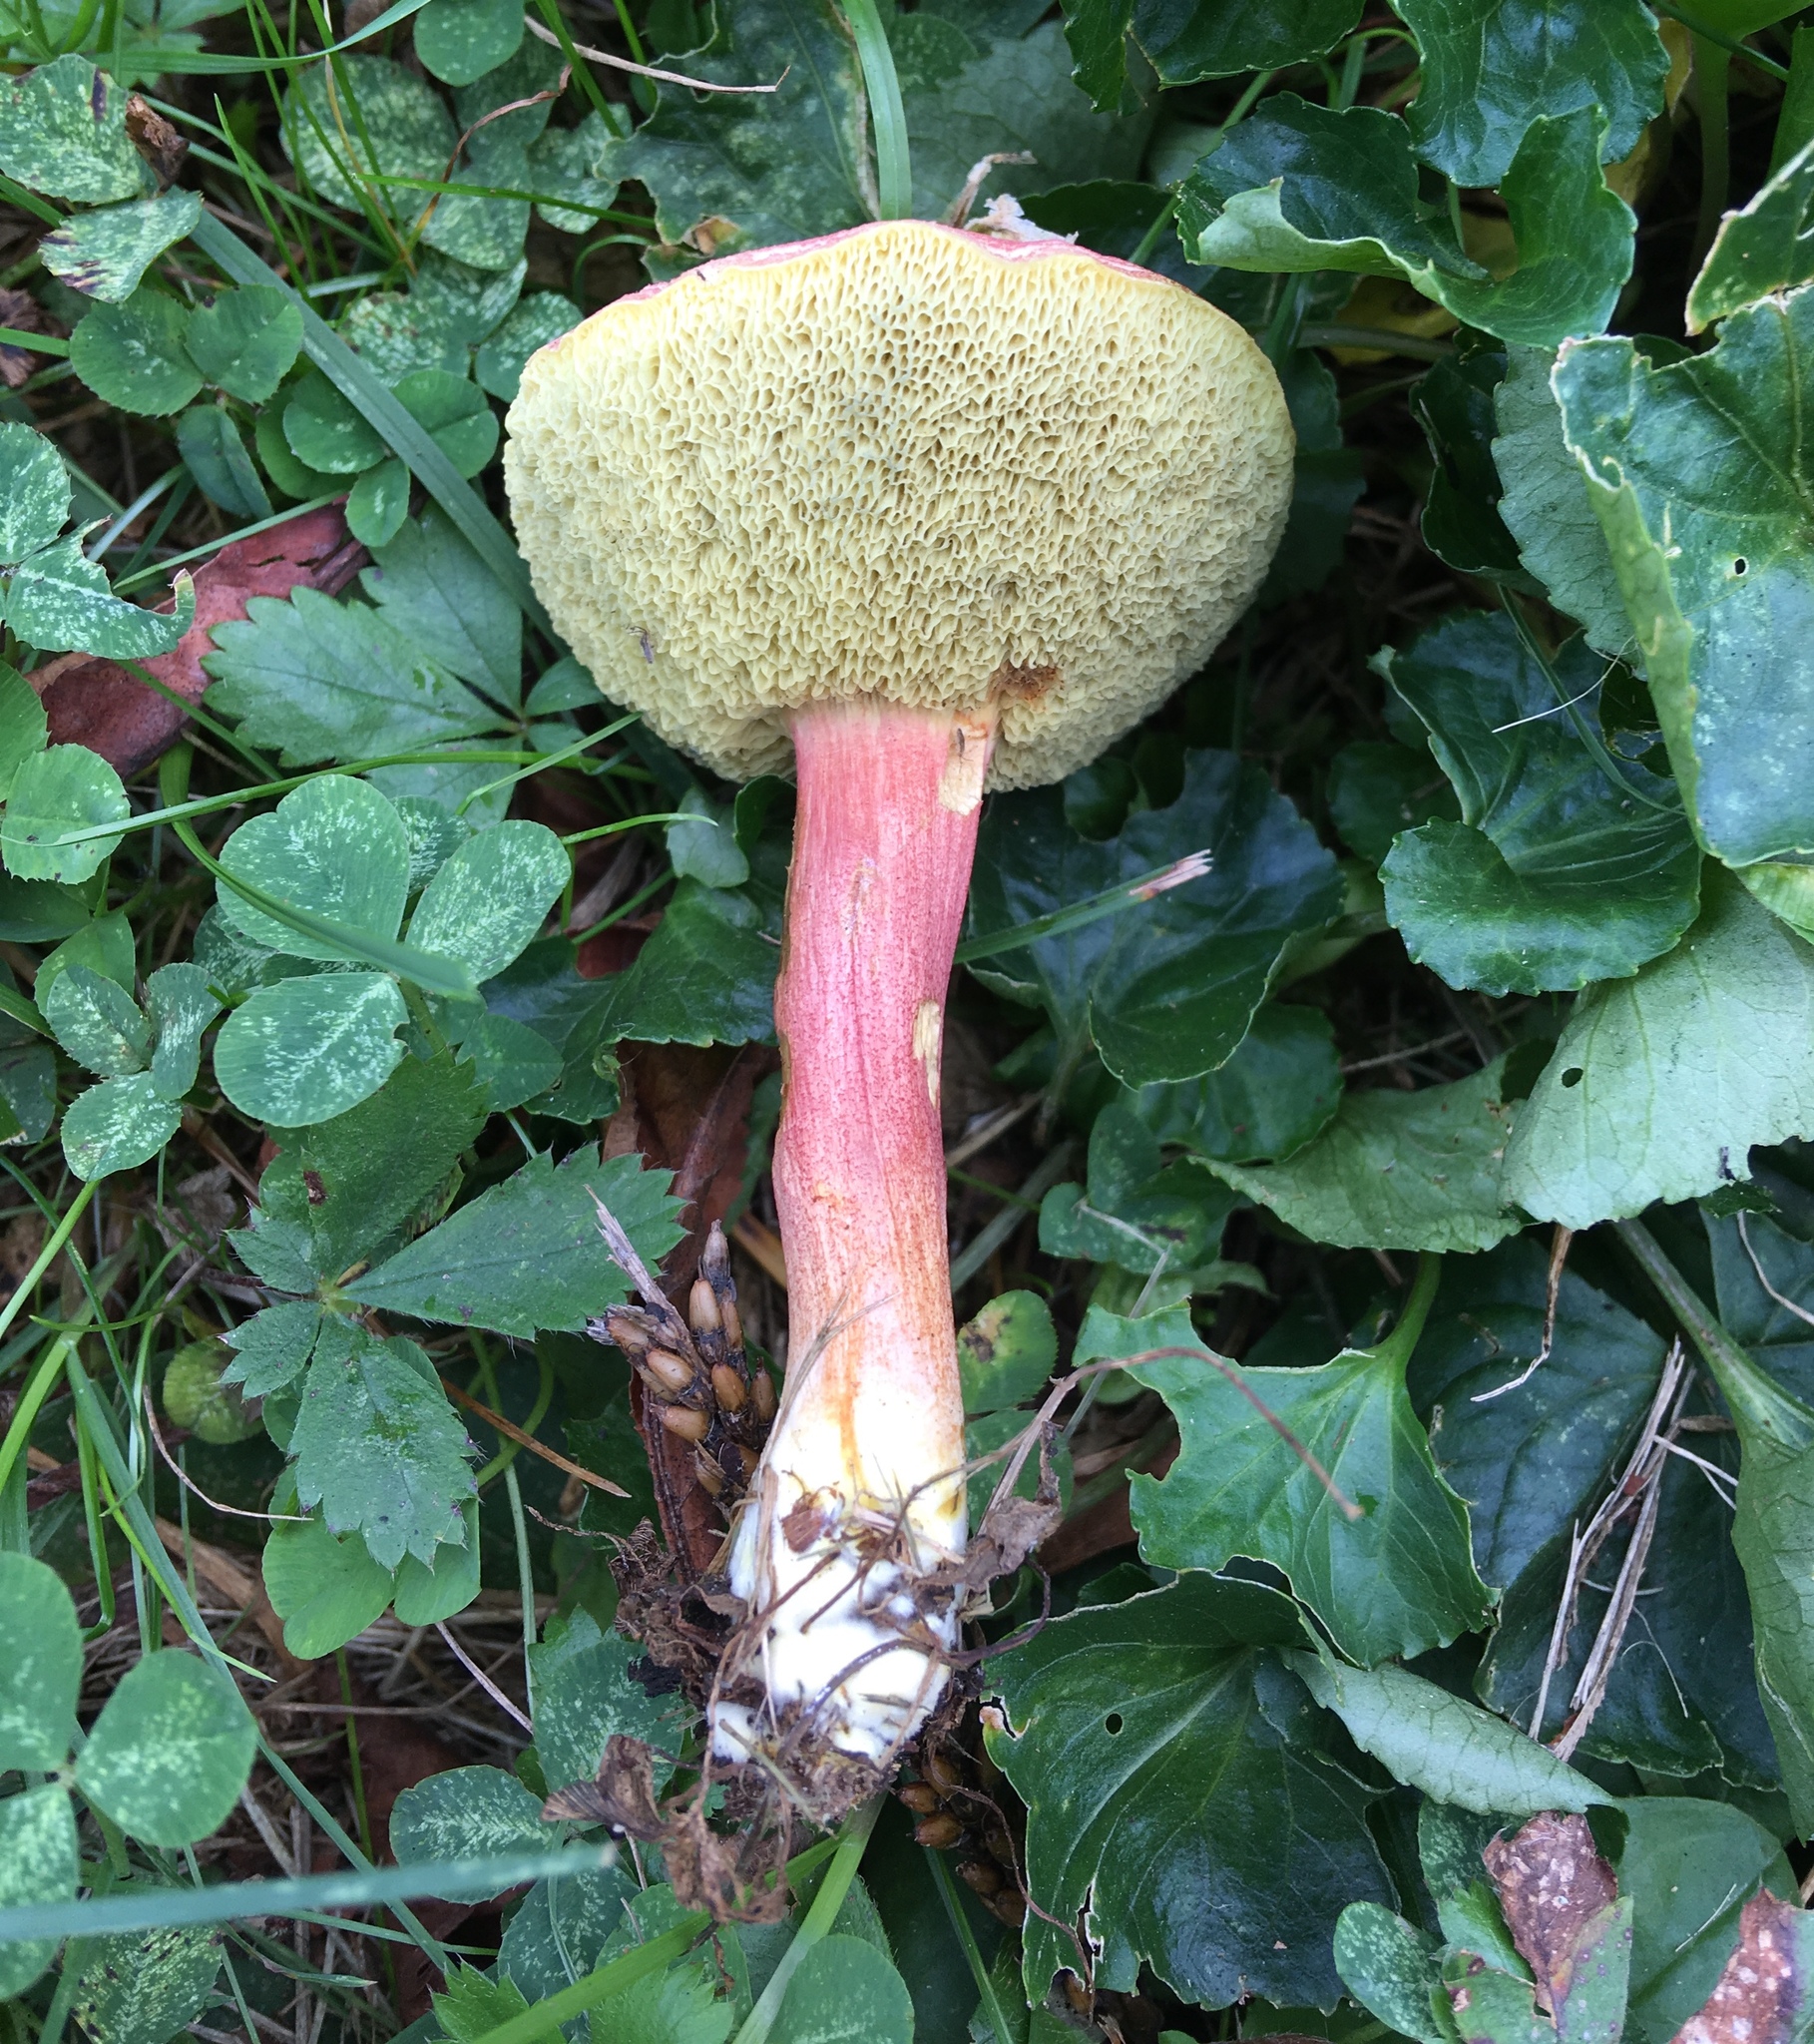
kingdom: Fungi
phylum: Basidiomycota
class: Agaricomycetes
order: Boletales
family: Boletaceae
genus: Hortiboletus
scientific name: Hortiboletus rubellus
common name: Ruby bolete
